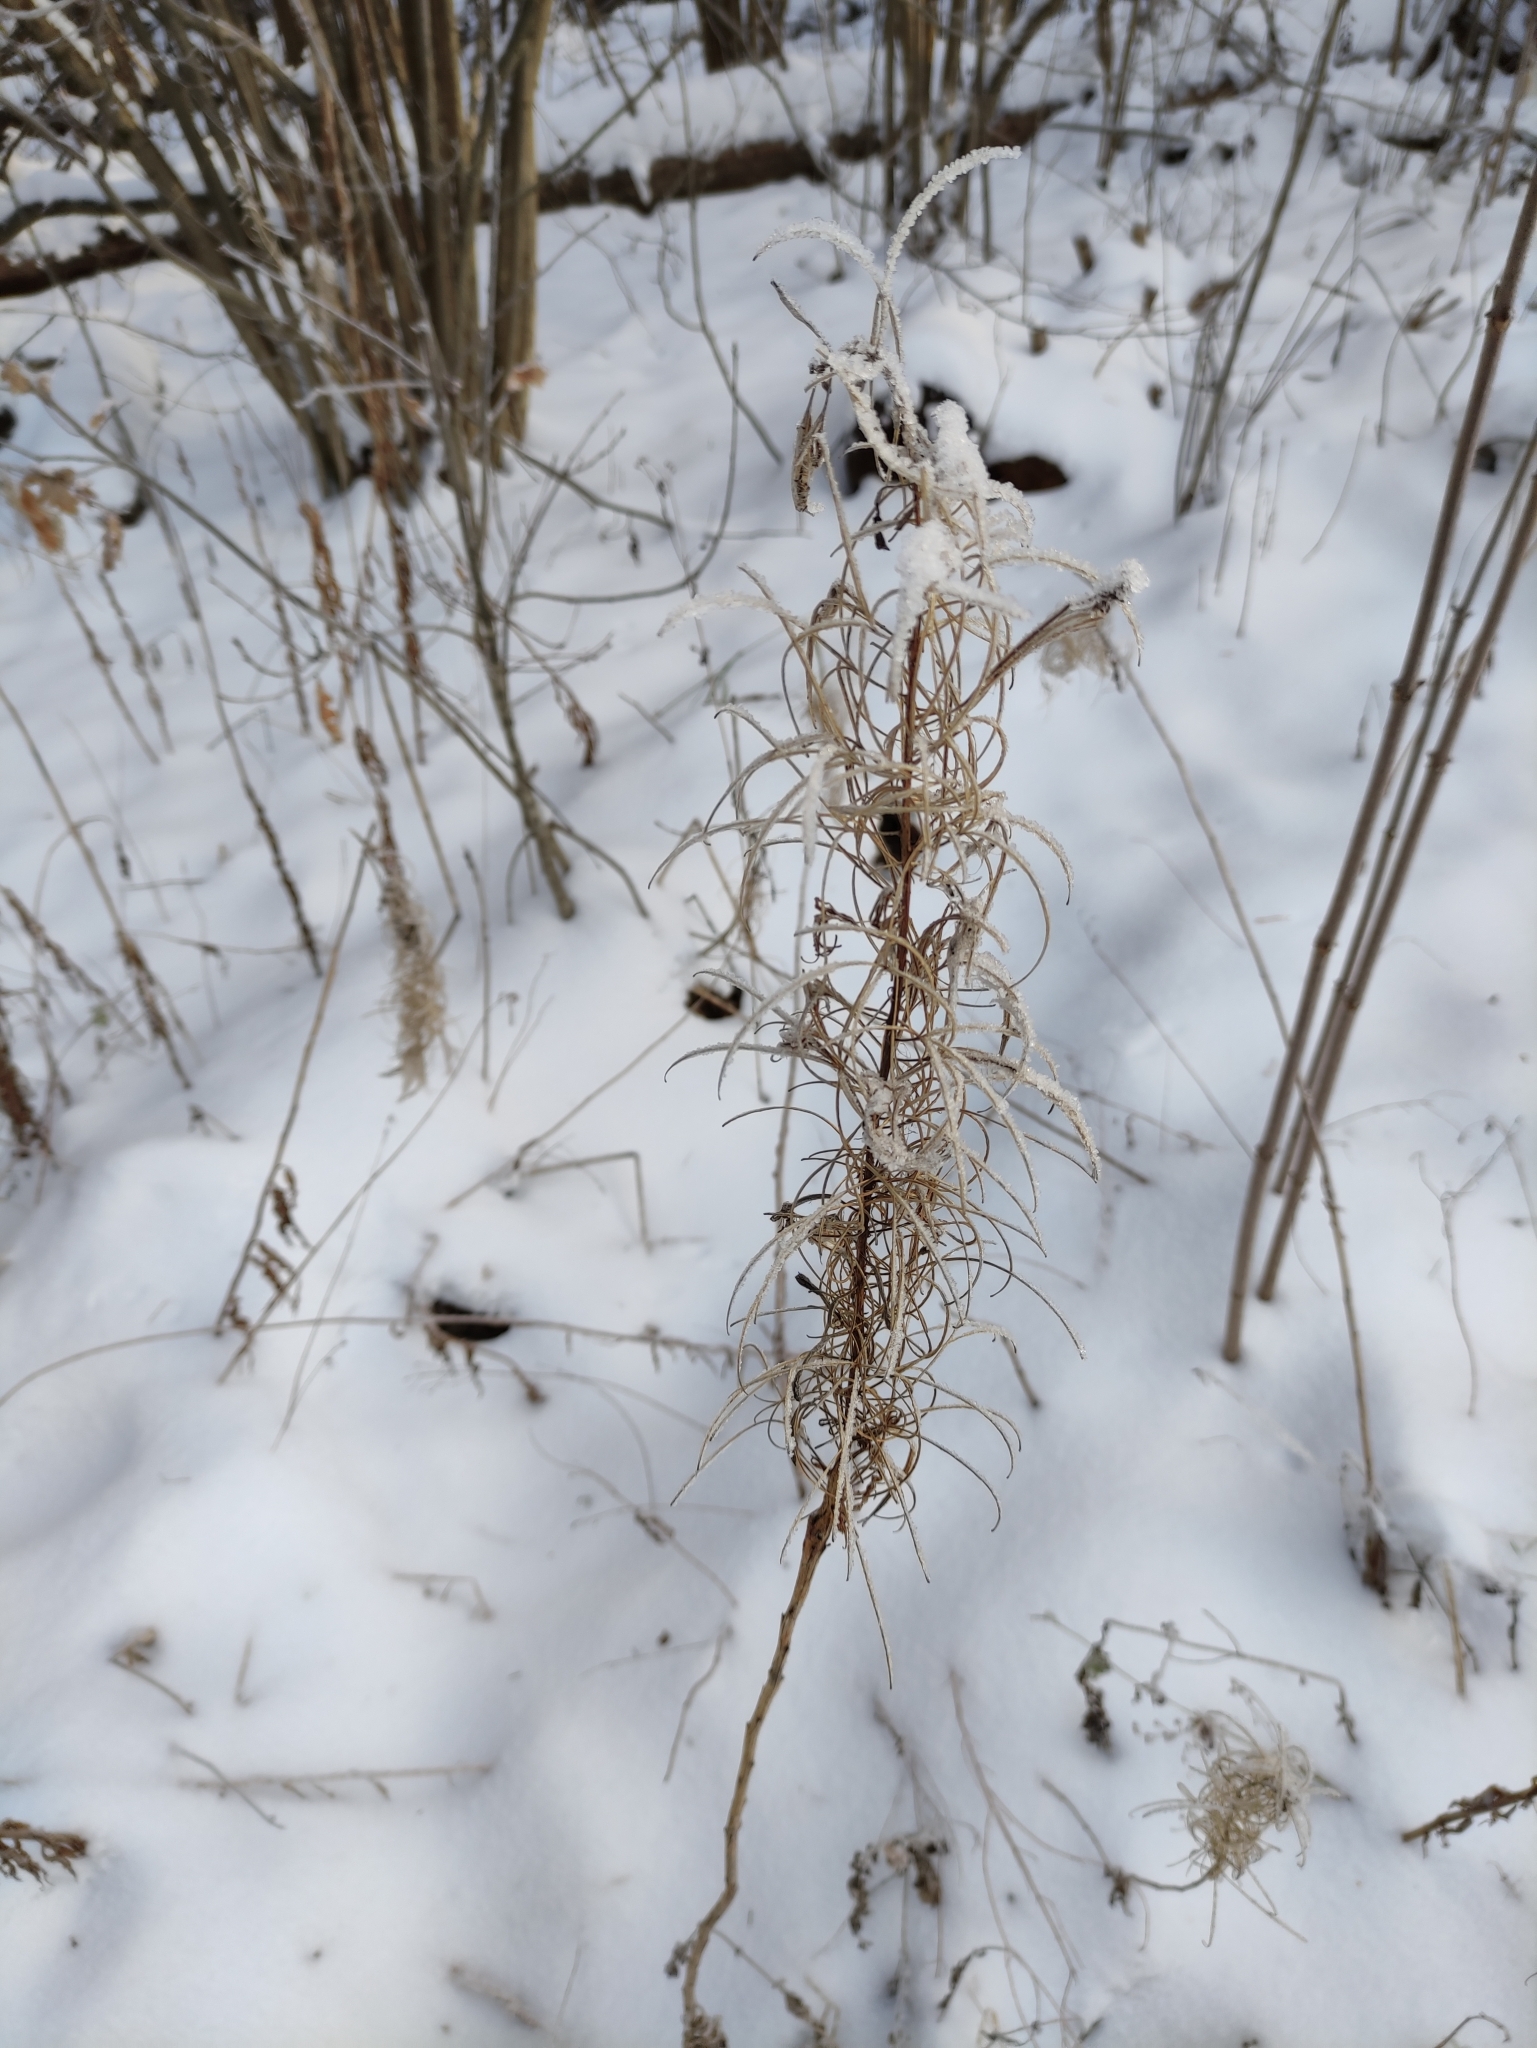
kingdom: Plantae
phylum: Tracheophyta
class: Magnoliopsida
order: Myrtales
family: Onagraceae
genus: Chamaenerion
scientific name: Chamaenerion angustifolium
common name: Fireweed
